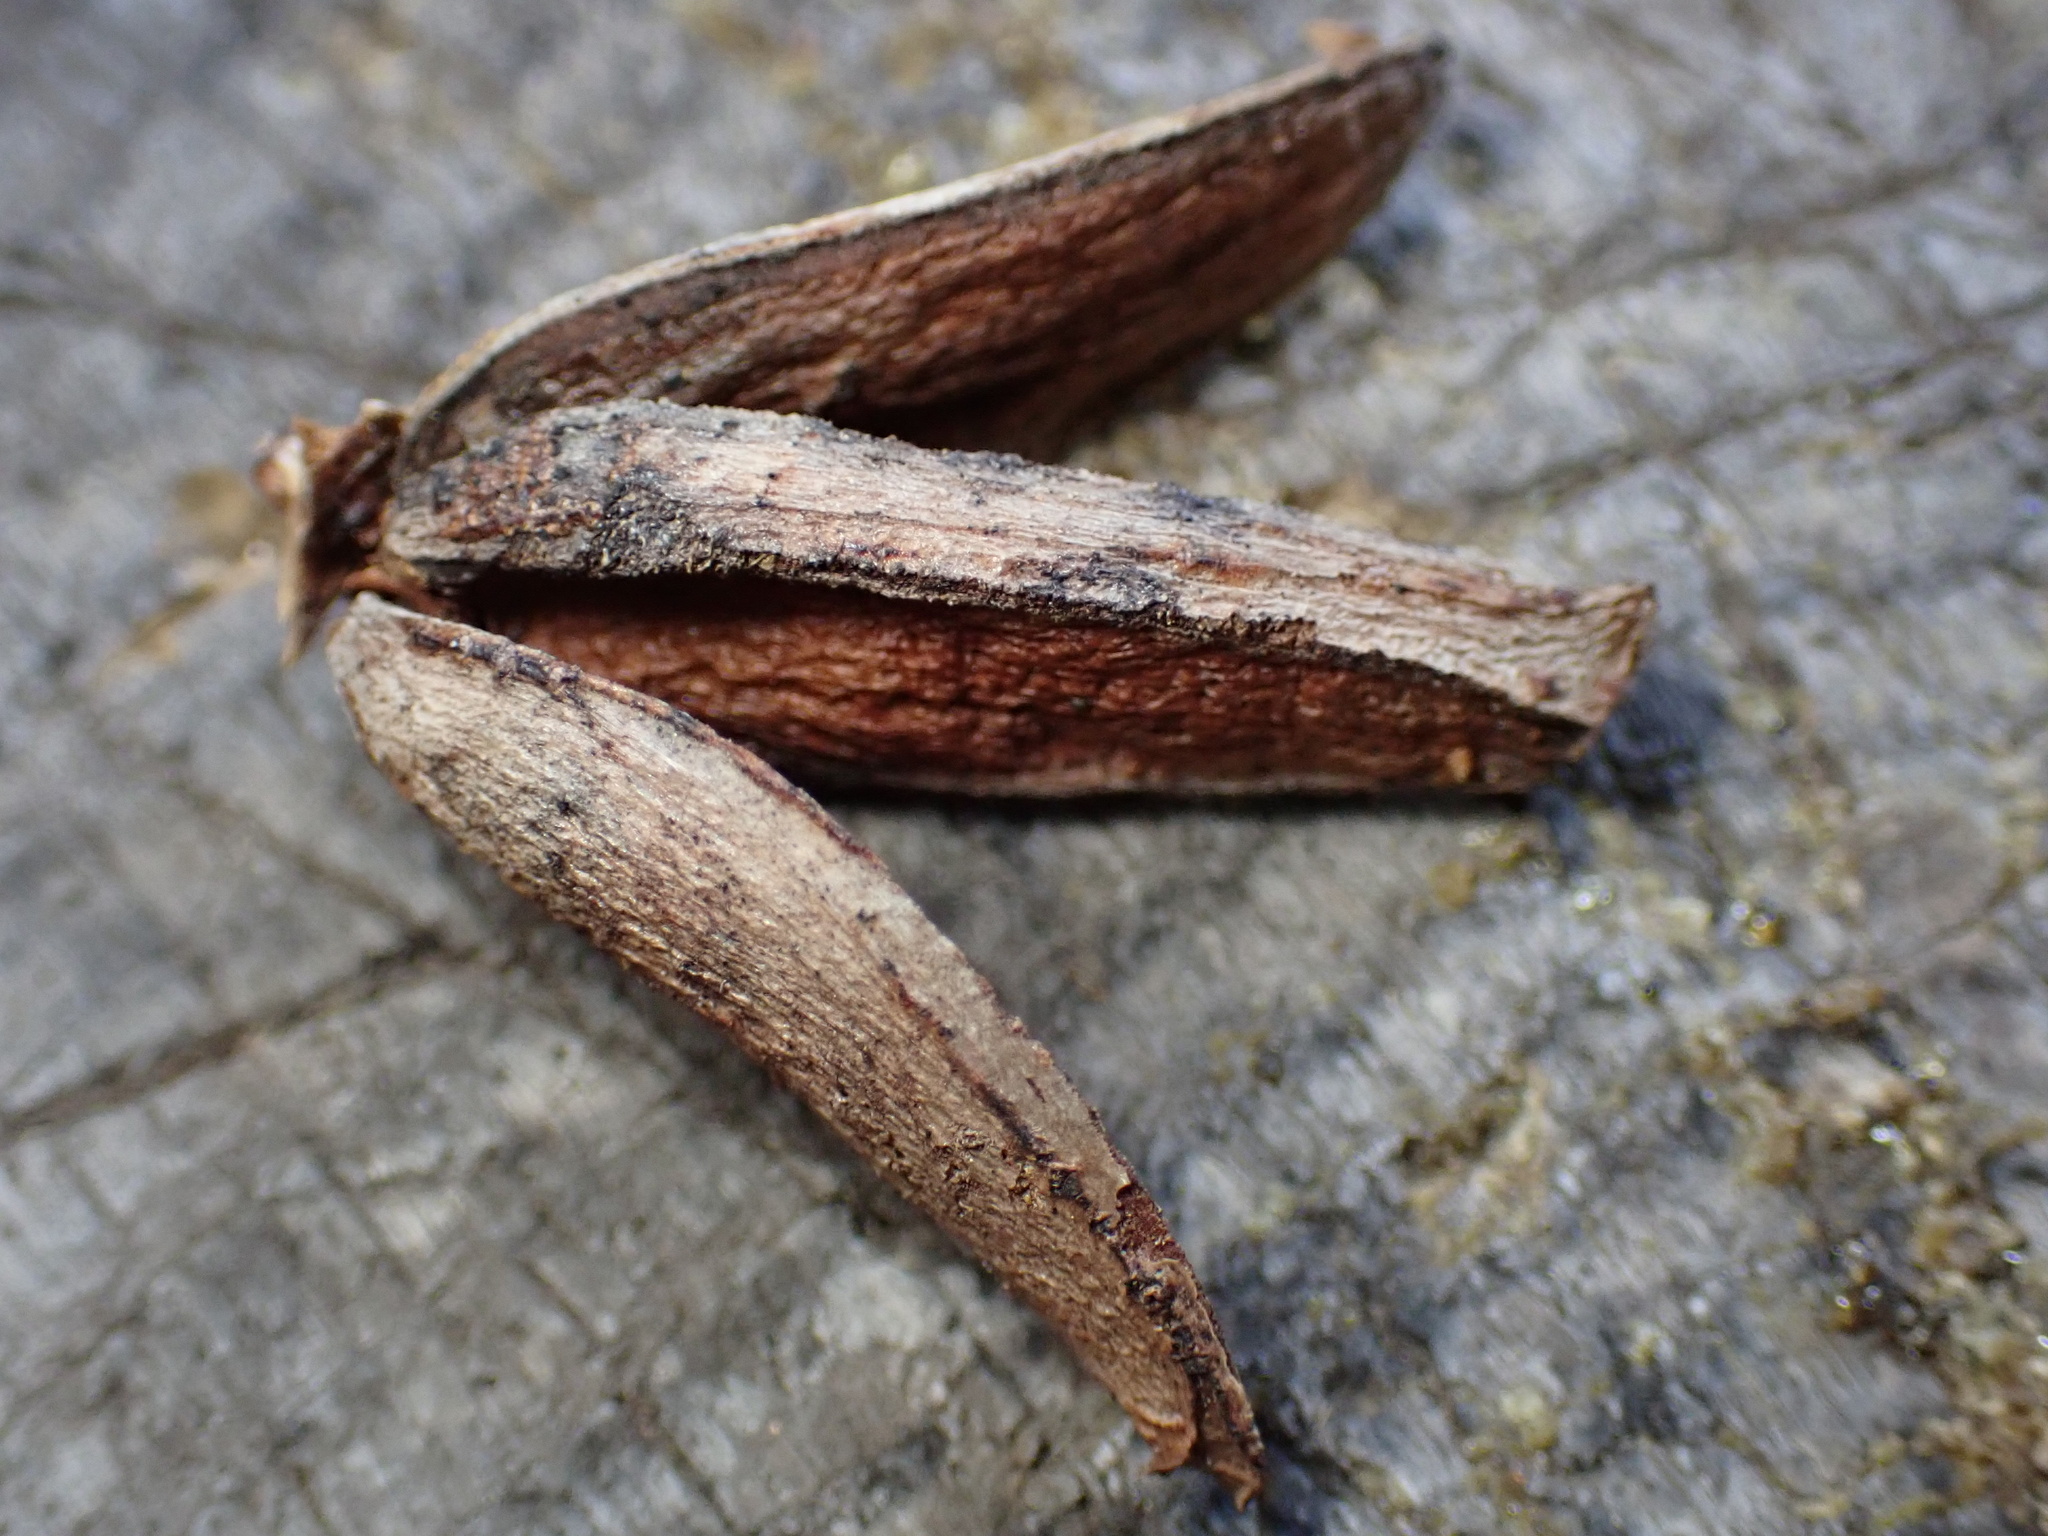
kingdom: Plantae
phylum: Tracheophyta
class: Pinopsida
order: Pinales
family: Cupressaceae
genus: Calocedrus
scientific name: Calocedrus decurrens
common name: Californian incense-cedar
